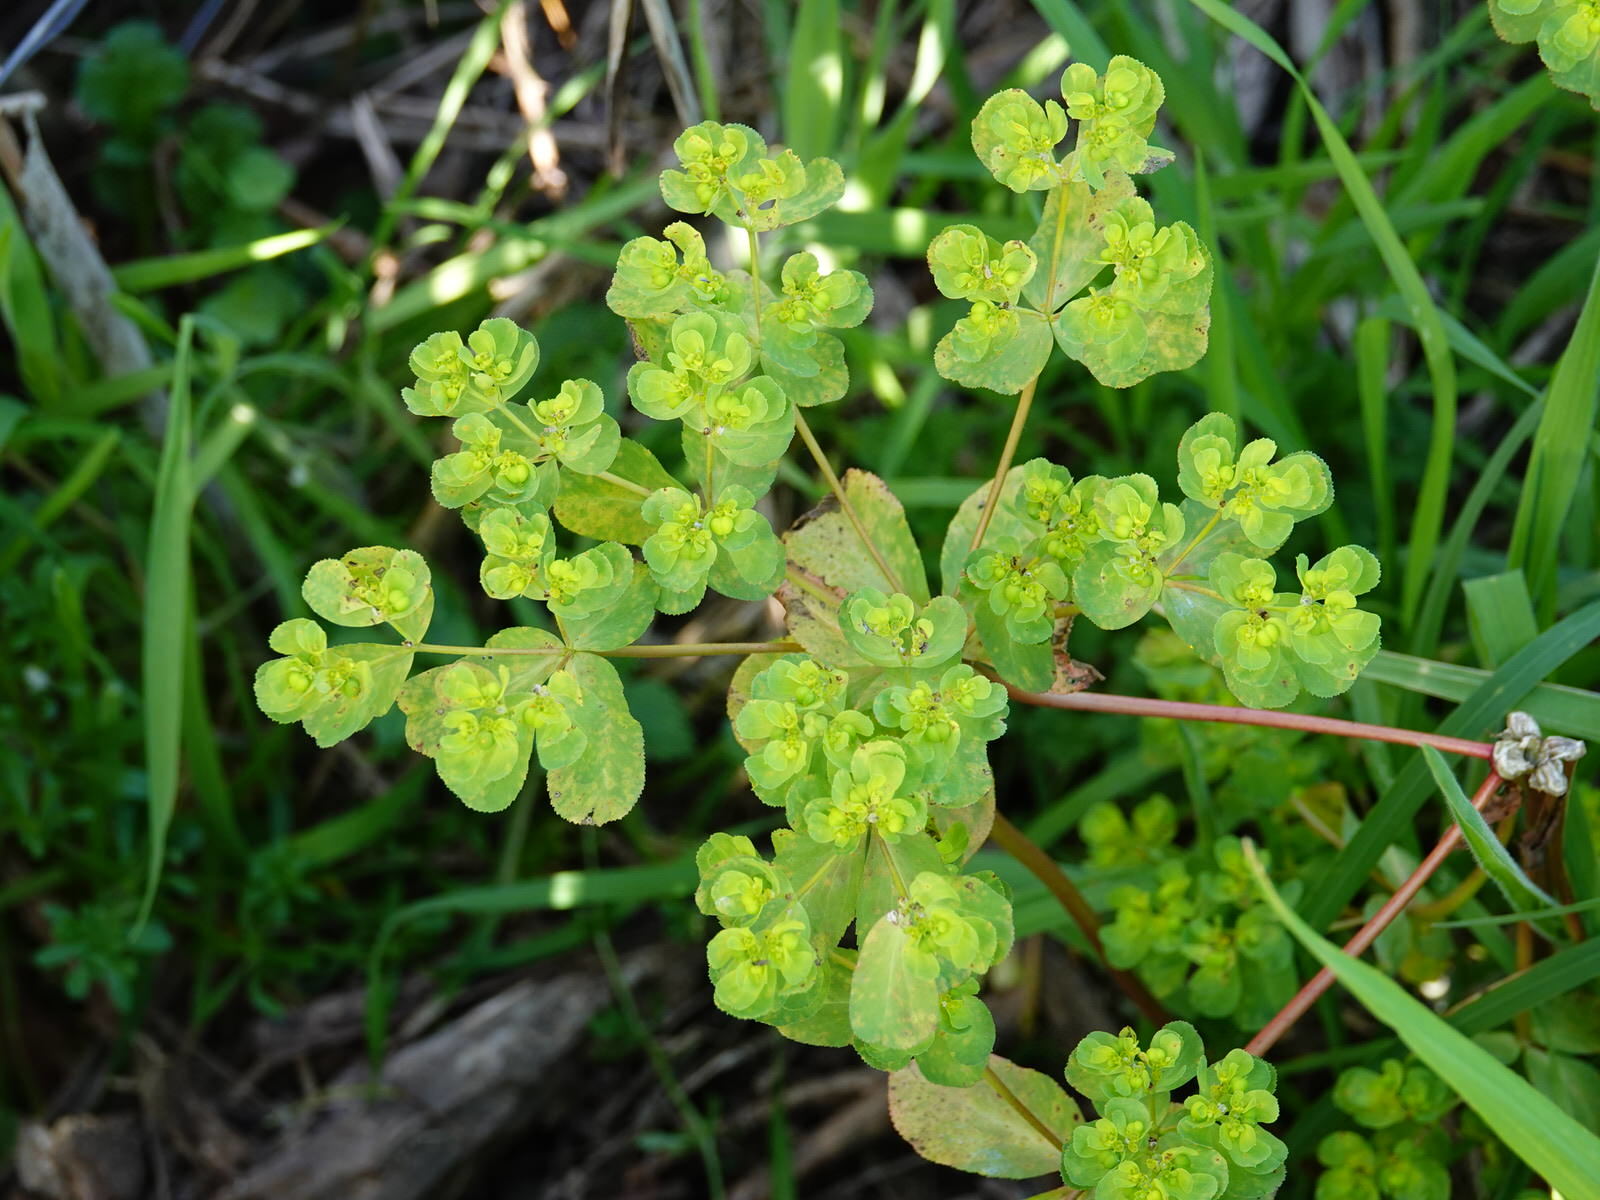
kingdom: Fungi
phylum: Basidiomycota
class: Pucciniomycetes
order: Pucciniales
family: Melampsoraceae
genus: Melampsora
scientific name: Melampsora euphorbiae
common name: Spurge rust
